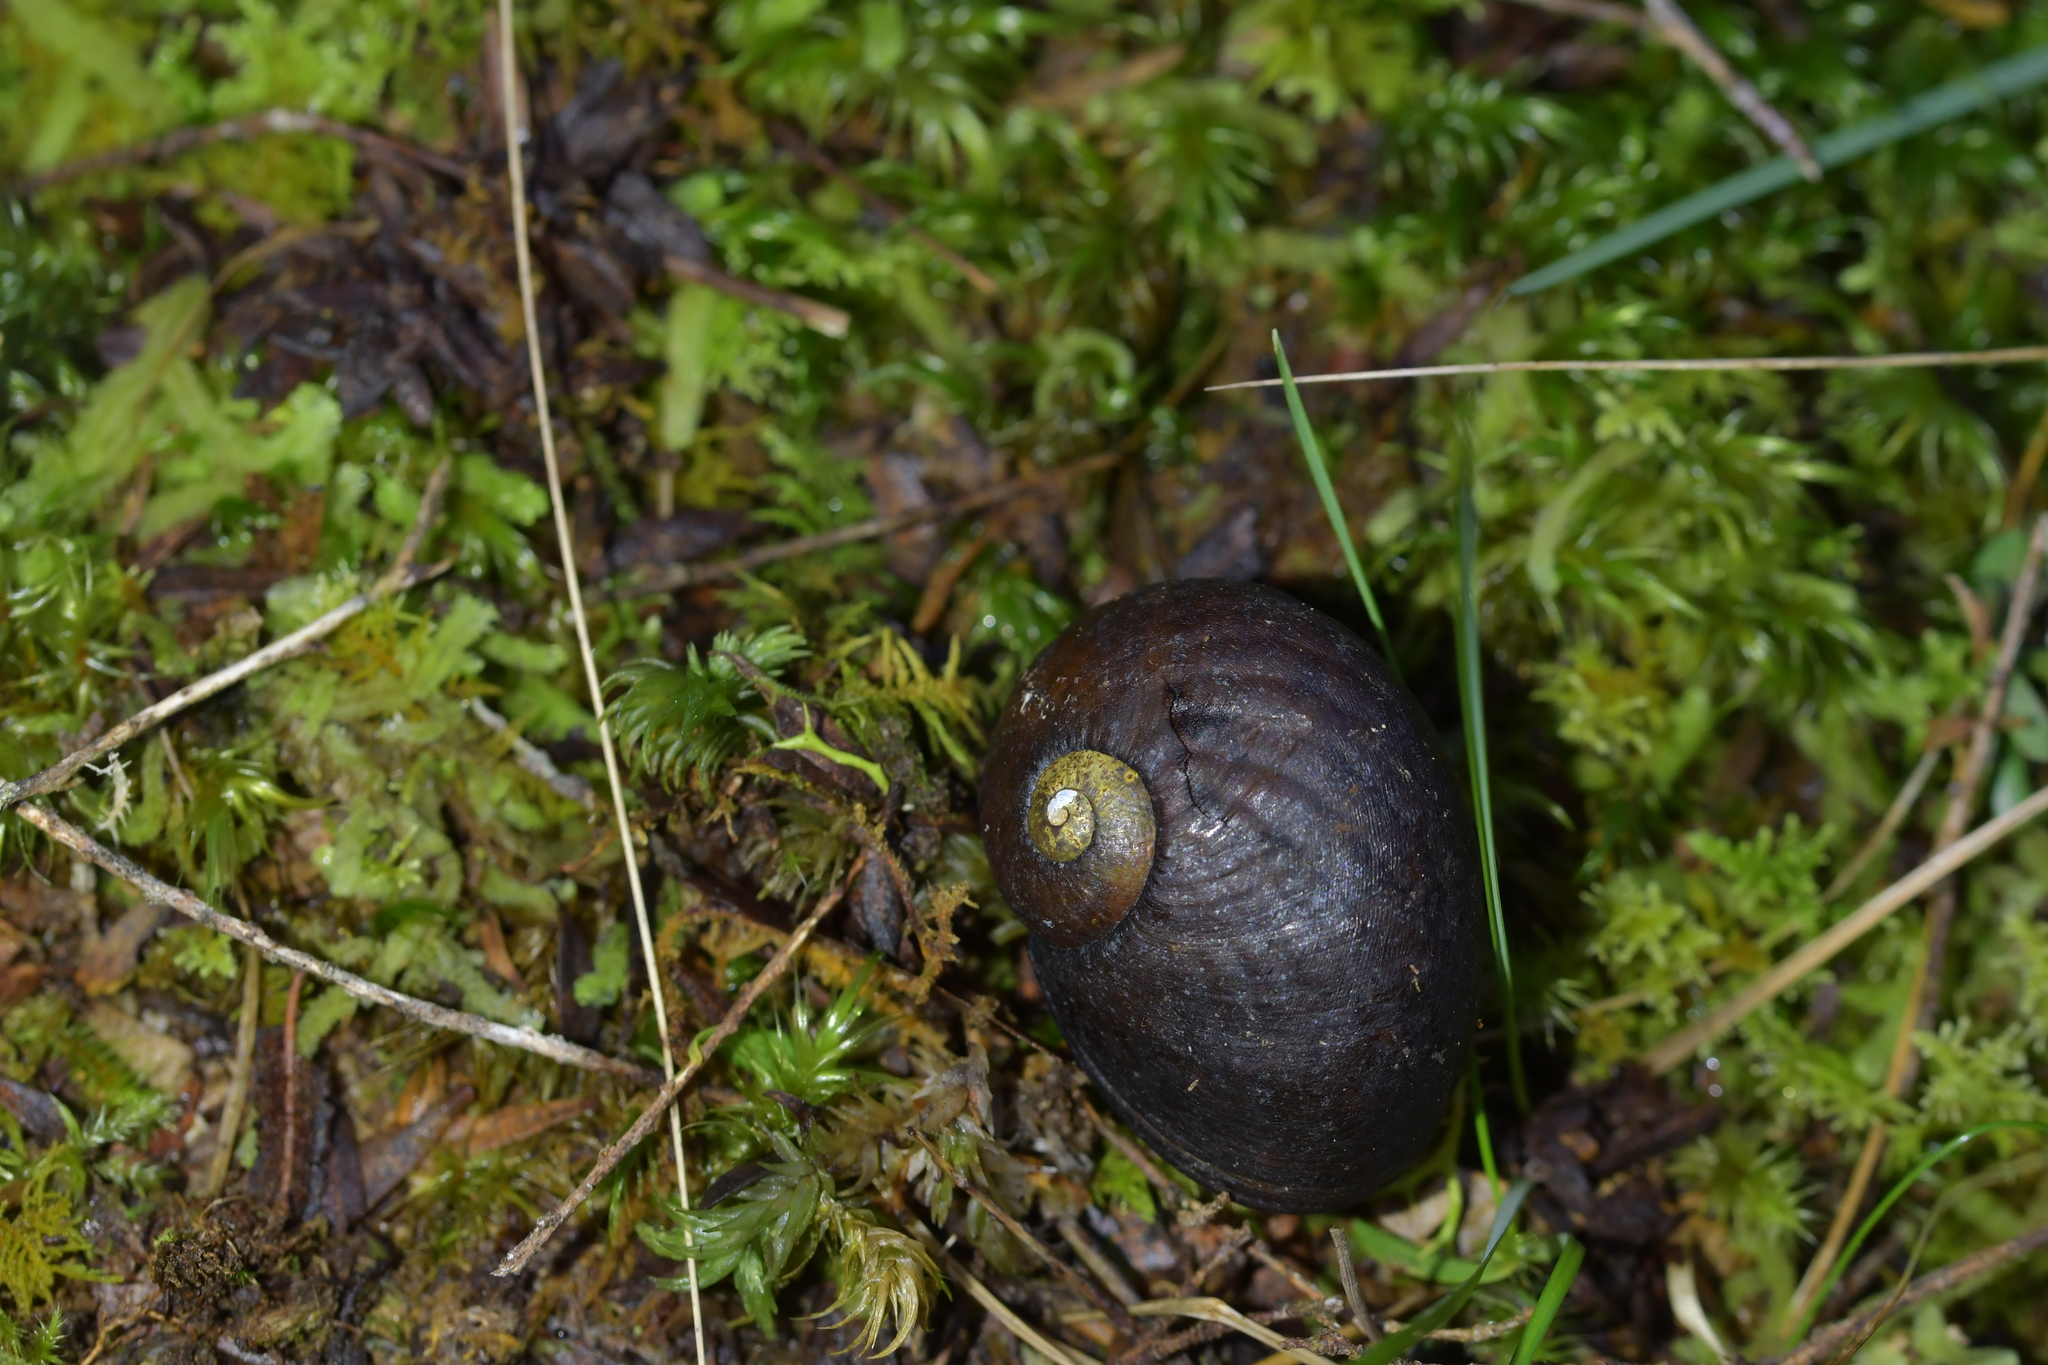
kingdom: Animalia
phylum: Mollusca
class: Gastropoda
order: Stylommatophora
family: Rhytididae
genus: Wainuia
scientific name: Wainuia urnula
